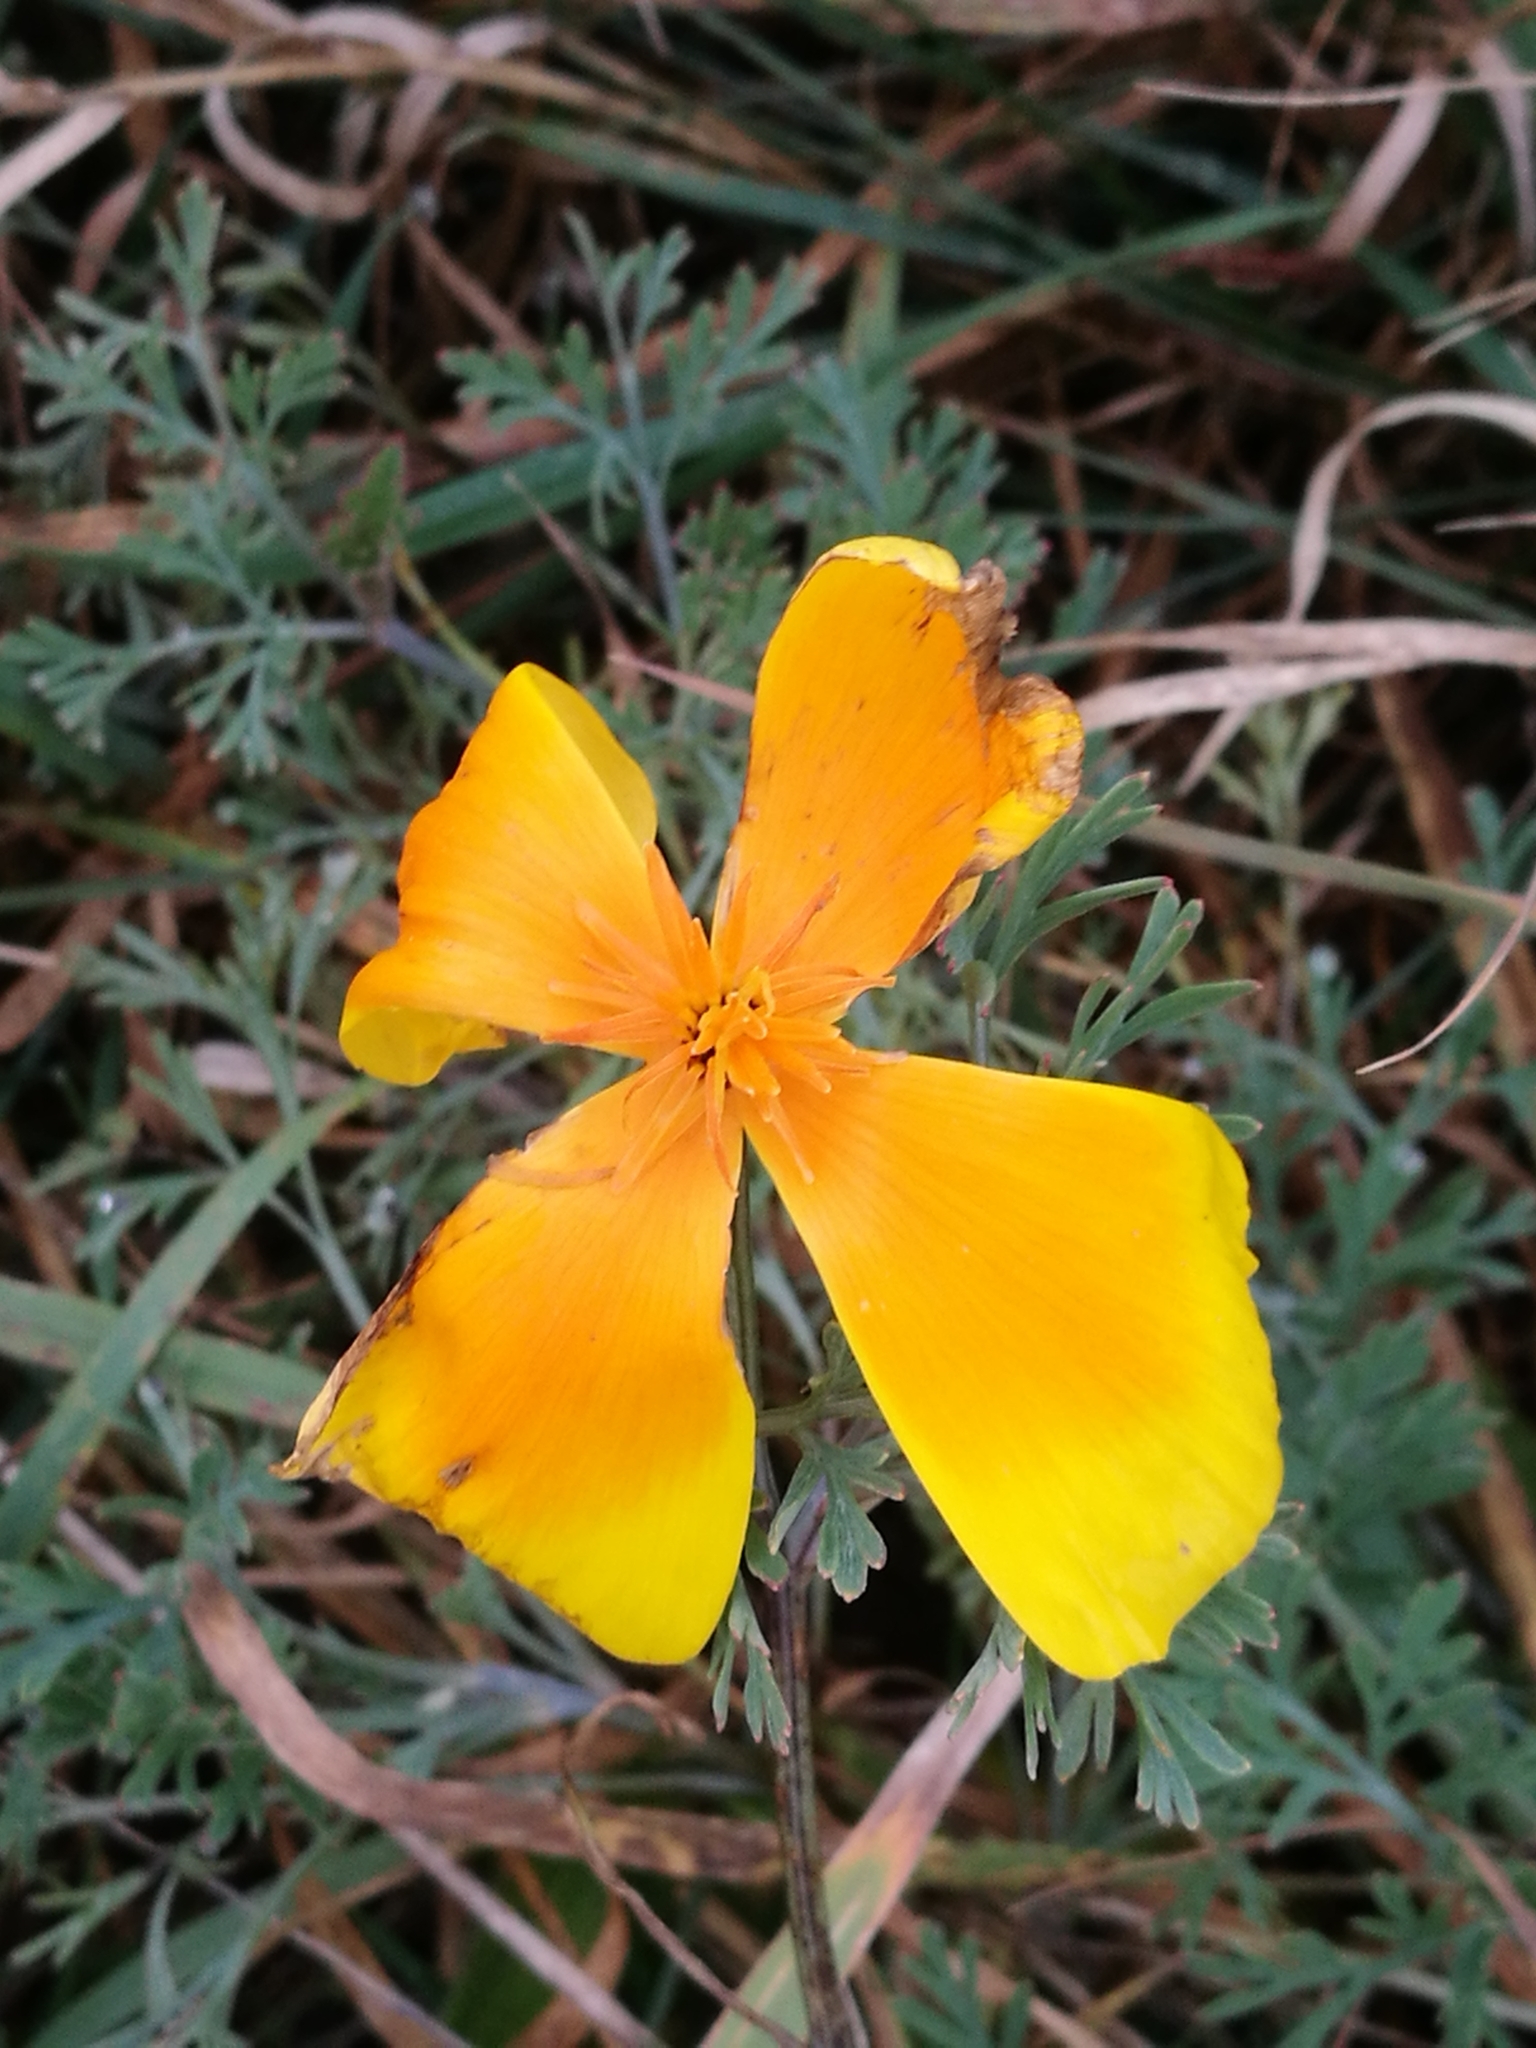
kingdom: Plantae
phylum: Tracheophyta
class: Magnoliopsida
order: Ranunculales
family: Papaveraceae
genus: Eschscholzia
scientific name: Eschscholzia californica
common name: California poppy
